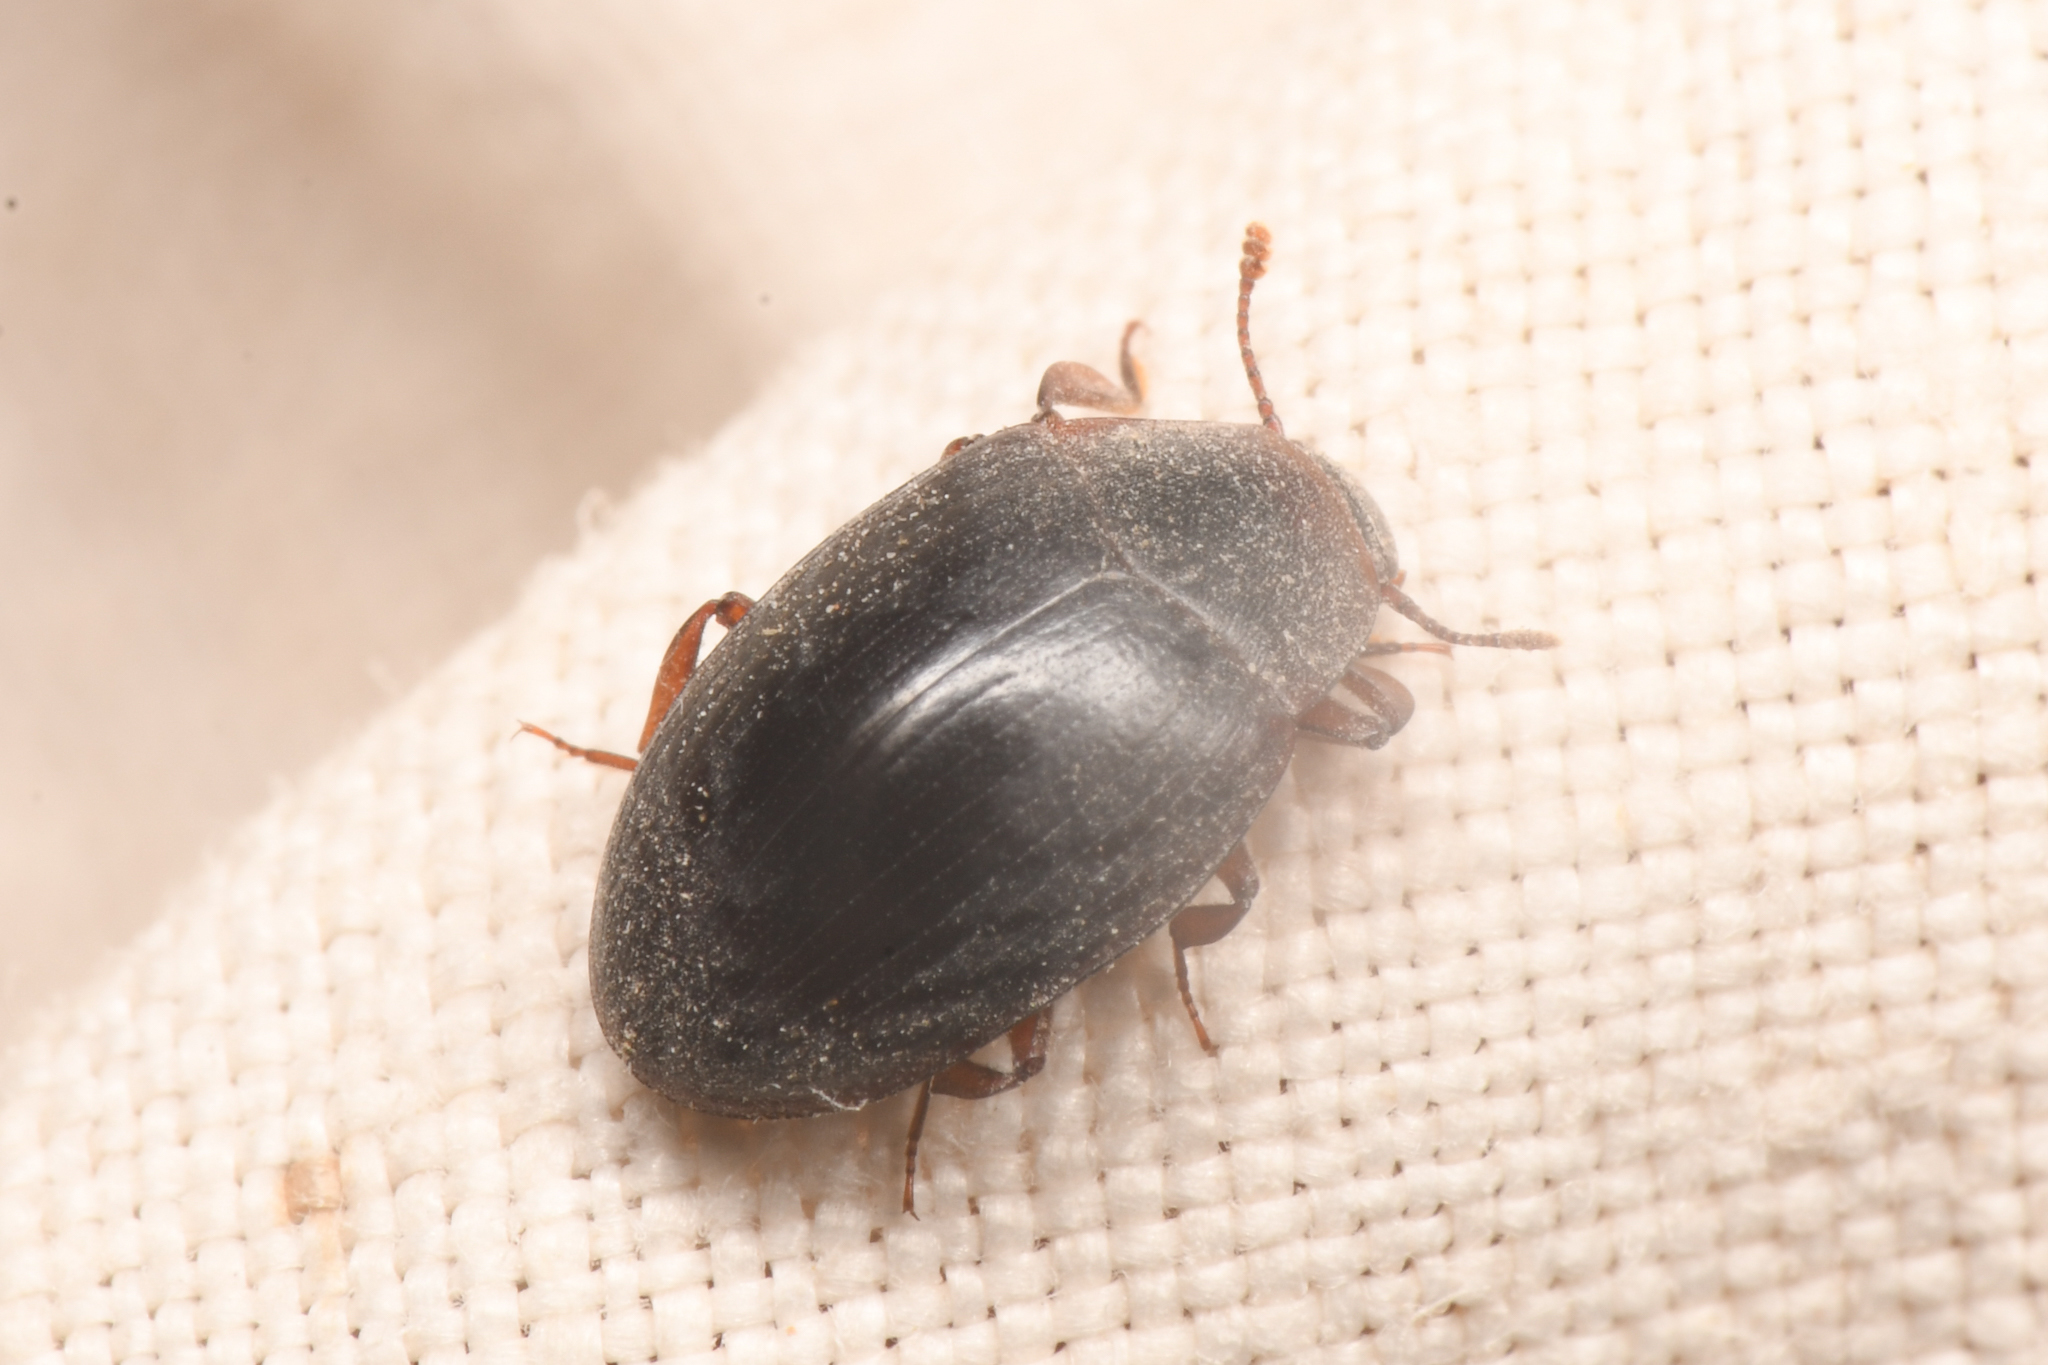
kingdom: Animalia
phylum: Arthropoda
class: Insecta
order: Coleoptera
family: Zopheridae
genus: Hyporhagus
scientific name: Hyporhagus gilensis
